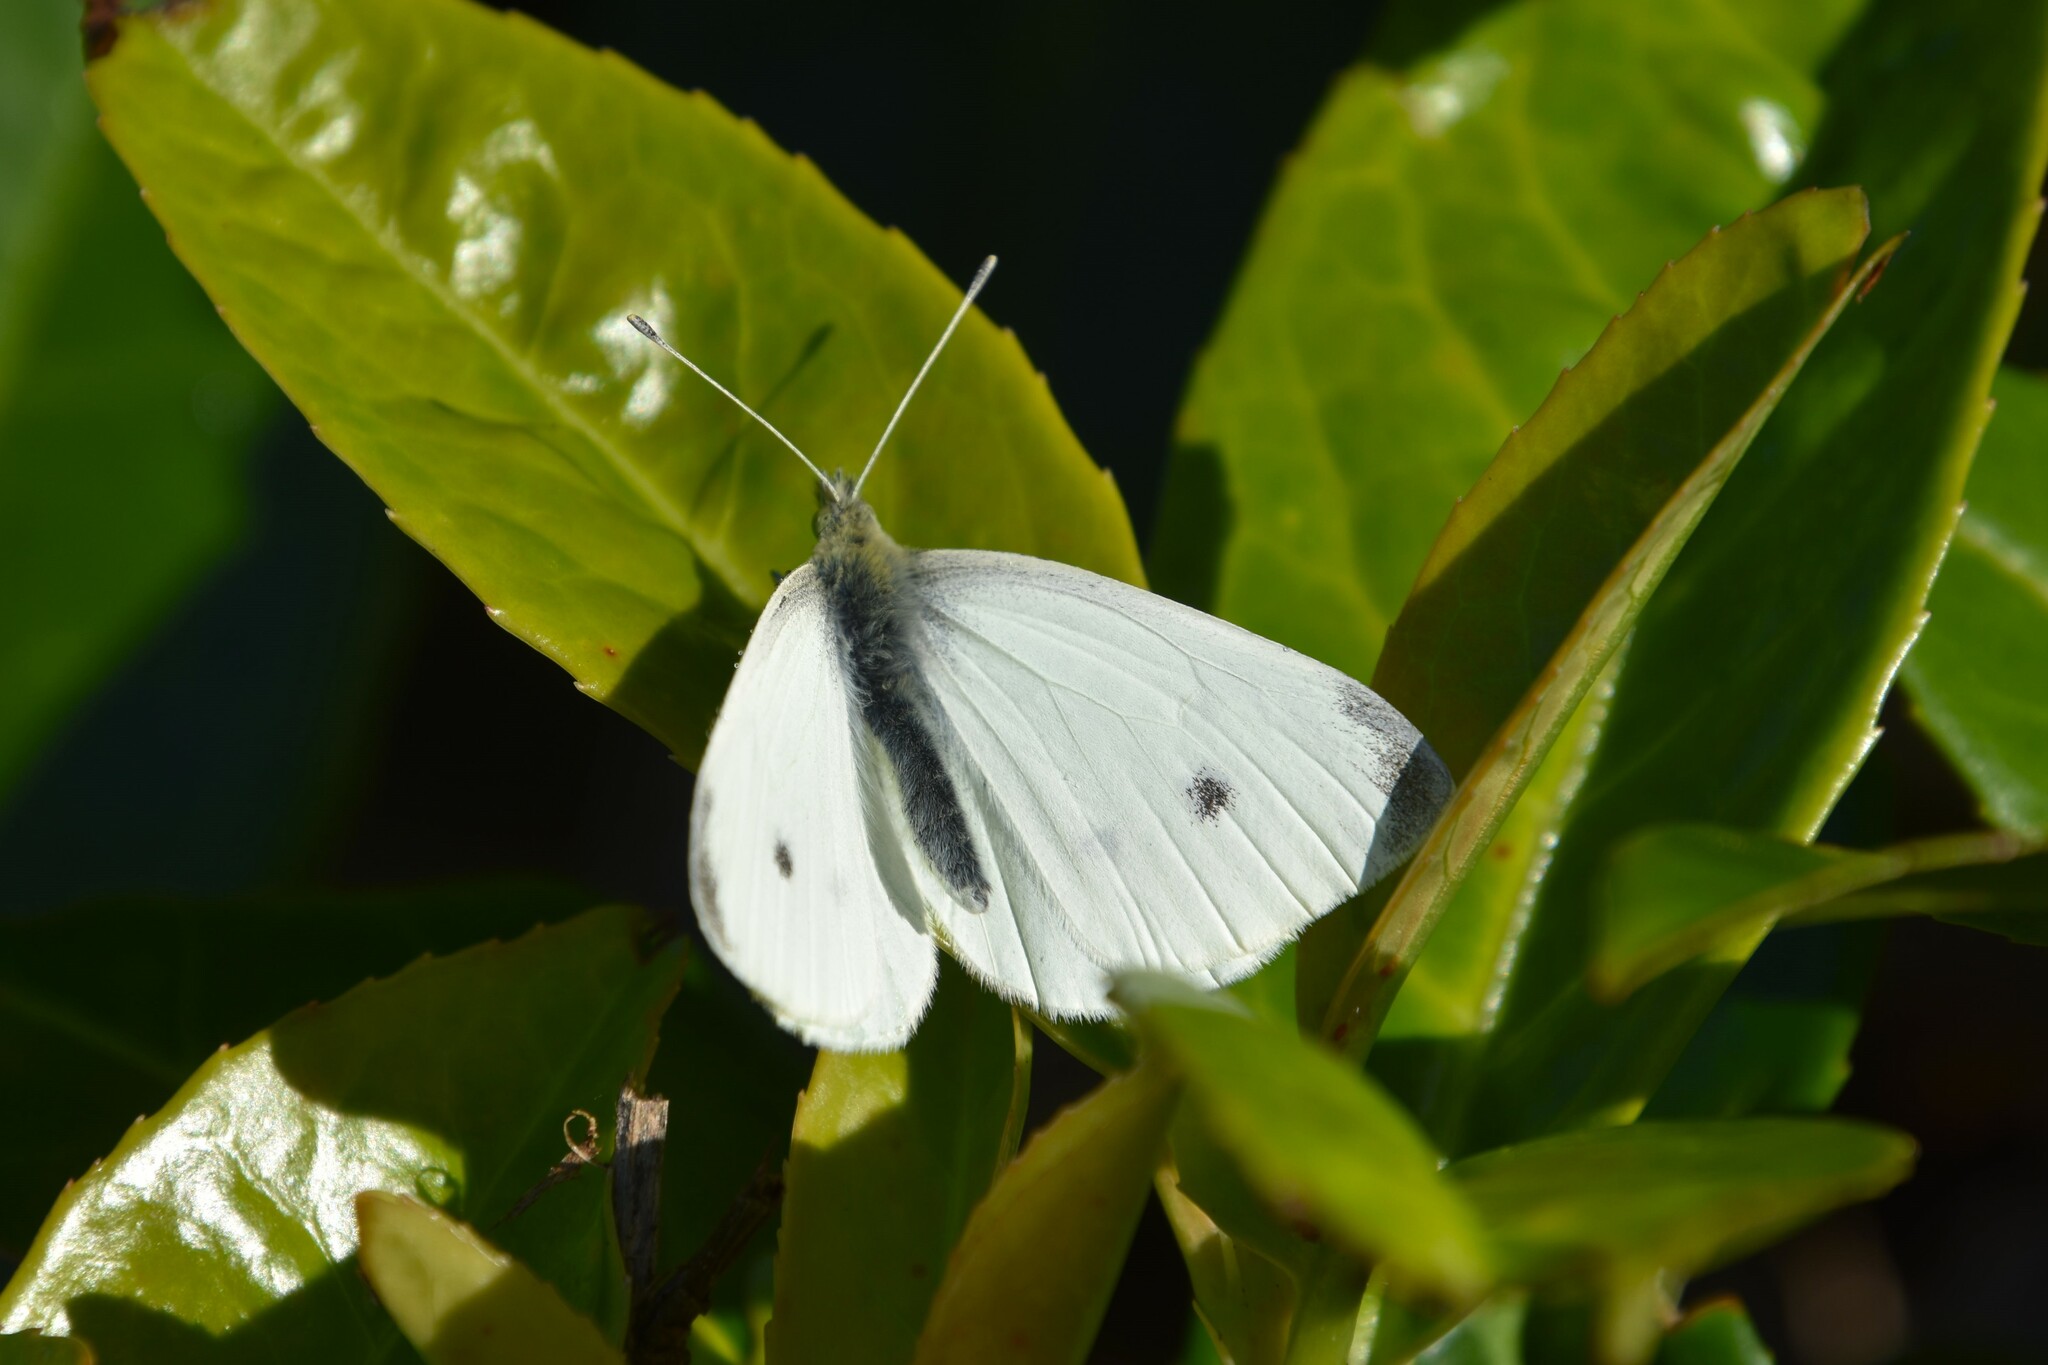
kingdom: Animalia
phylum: Arthropoda
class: Insecta
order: Lepidoptera
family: Pieridae
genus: Pieris
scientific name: Pieris rapae
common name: Small white
